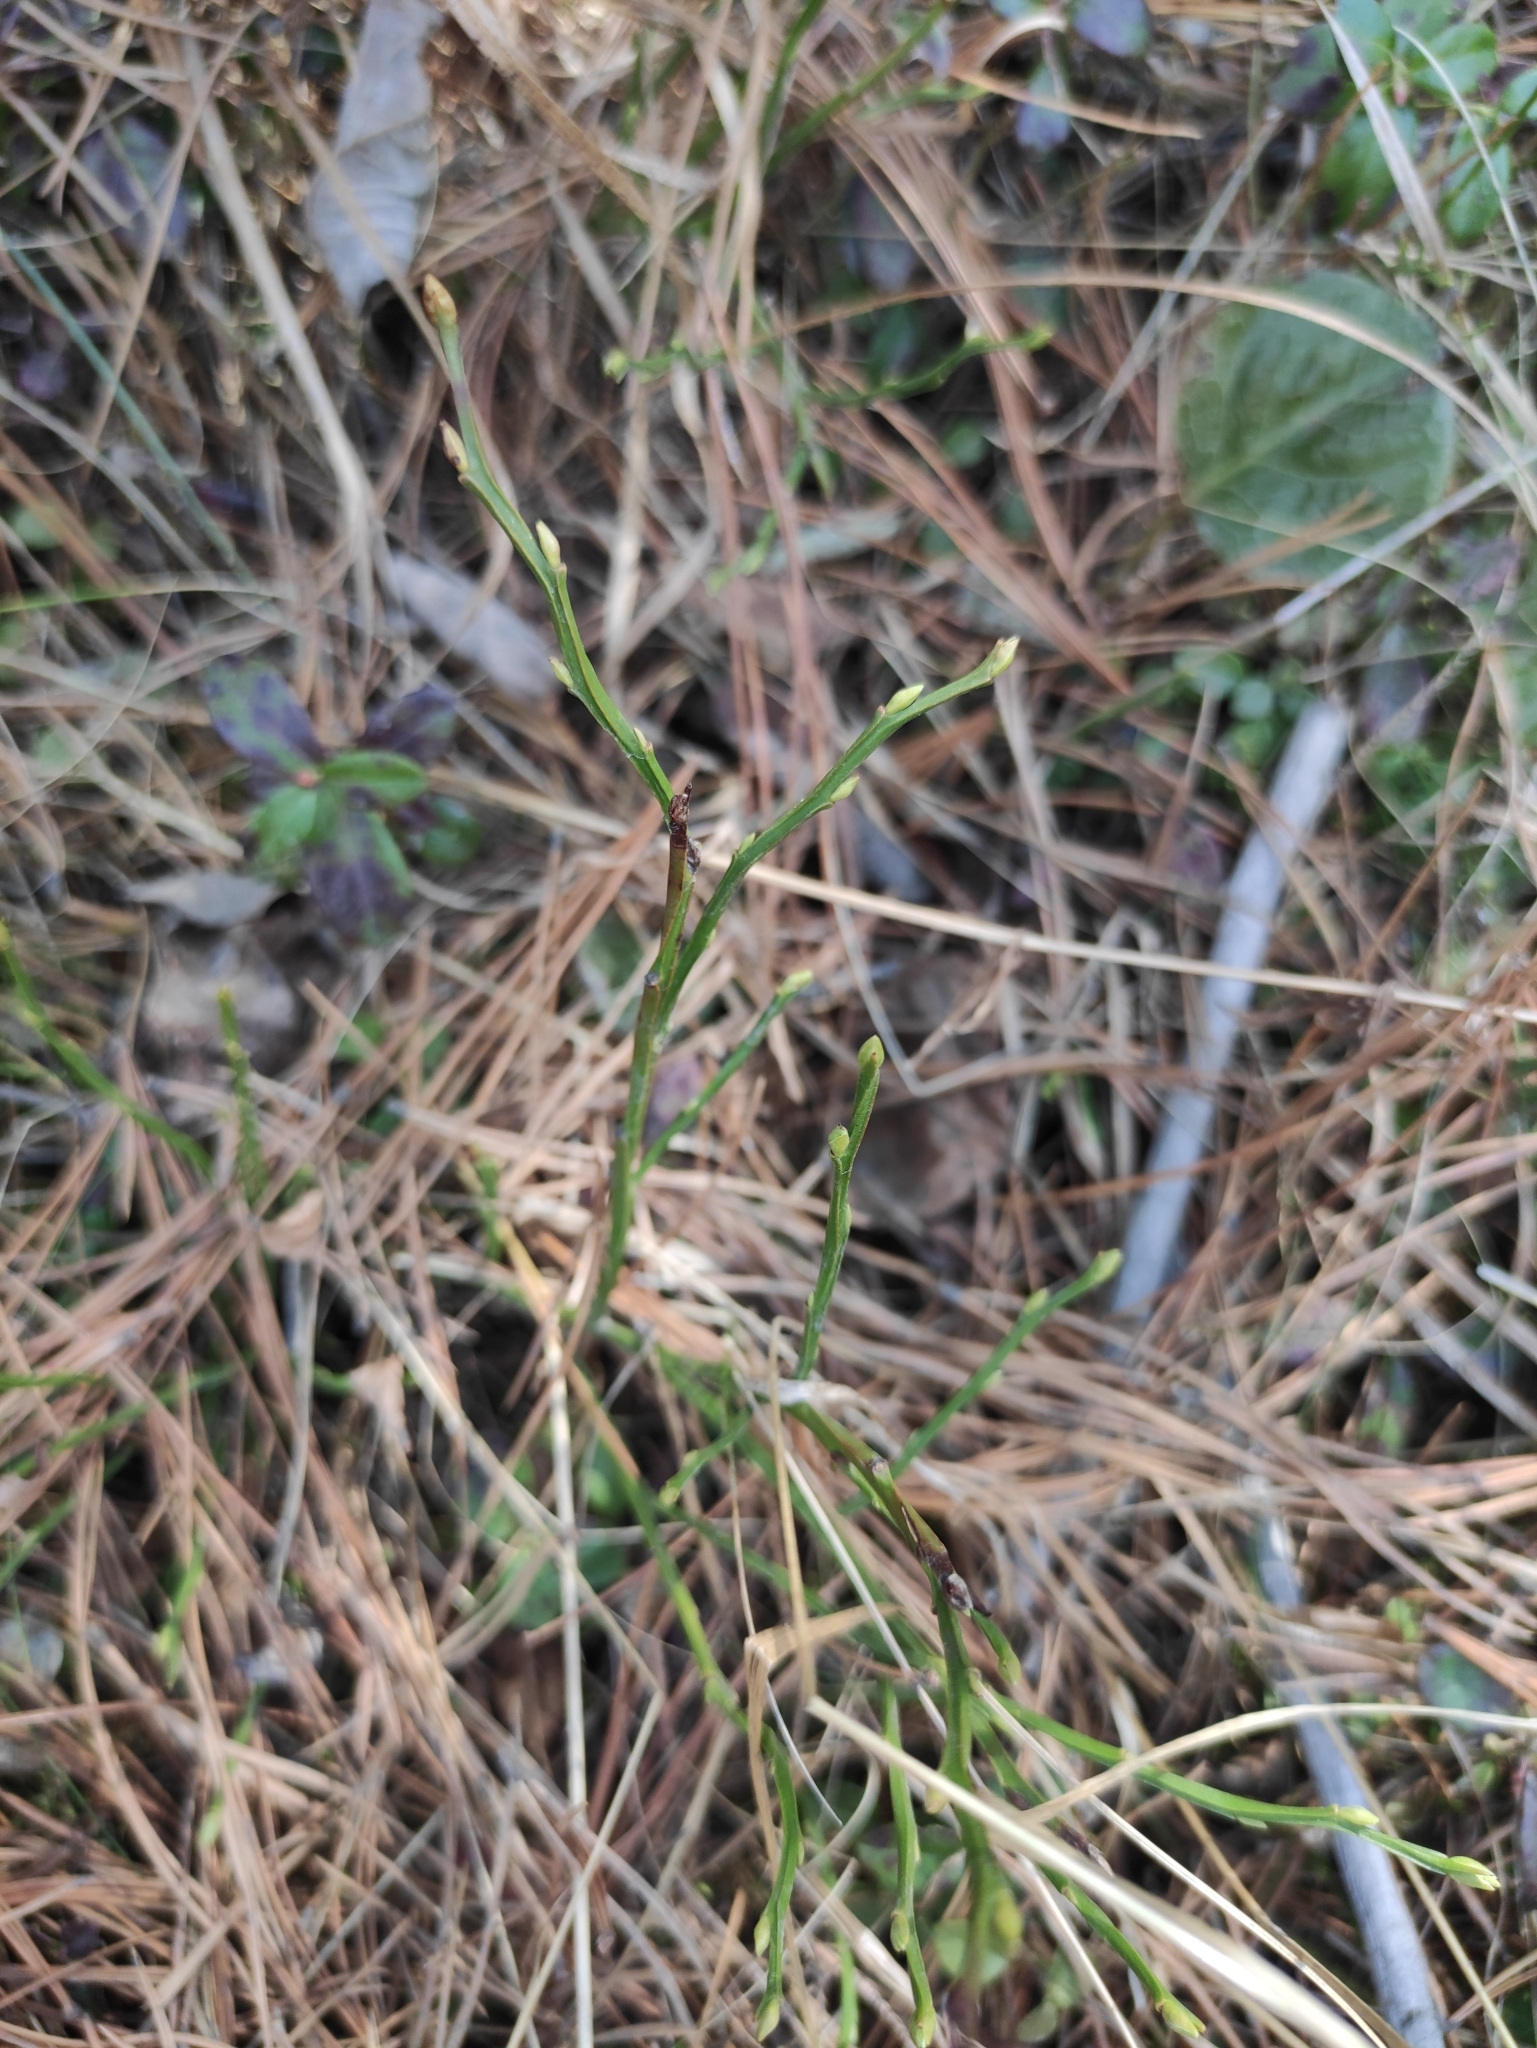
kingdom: Plantae
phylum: Tracheophyta
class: Magnoliopsida
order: Ericales
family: Ericaceae
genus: Vaccinium
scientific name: Vaccinium myrtillus
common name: Bilberry
